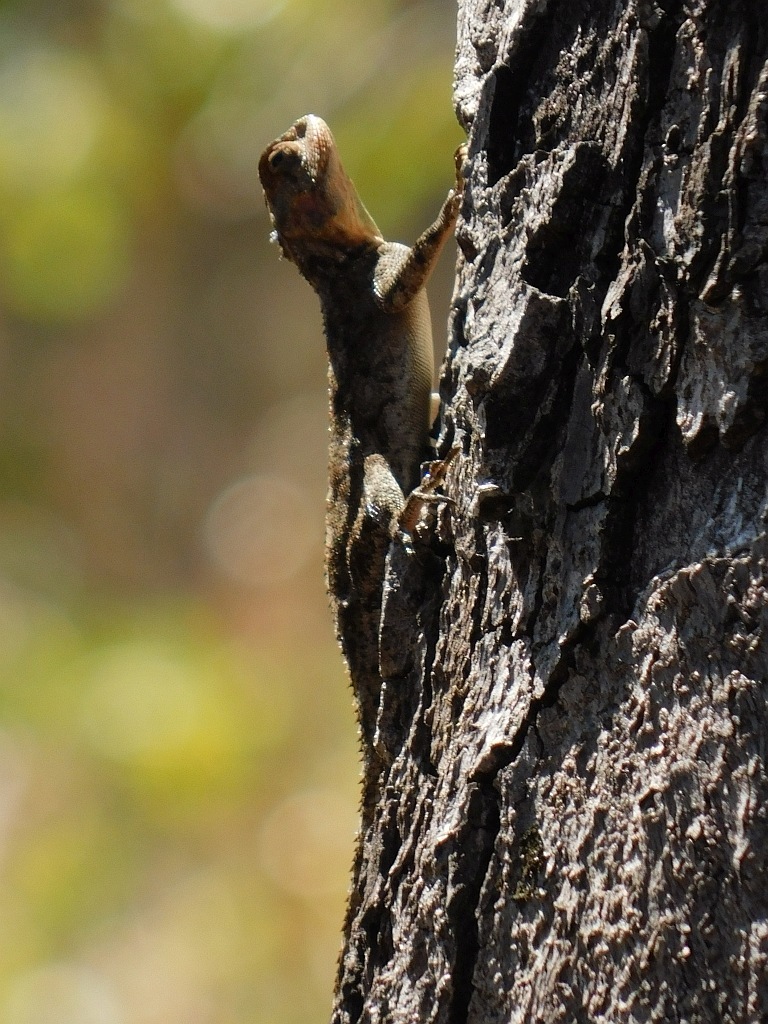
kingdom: Animalia
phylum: Chordata
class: Squamata
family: Agamidae
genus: Agama
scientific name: Agama mossambica
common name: Mozambique agama
